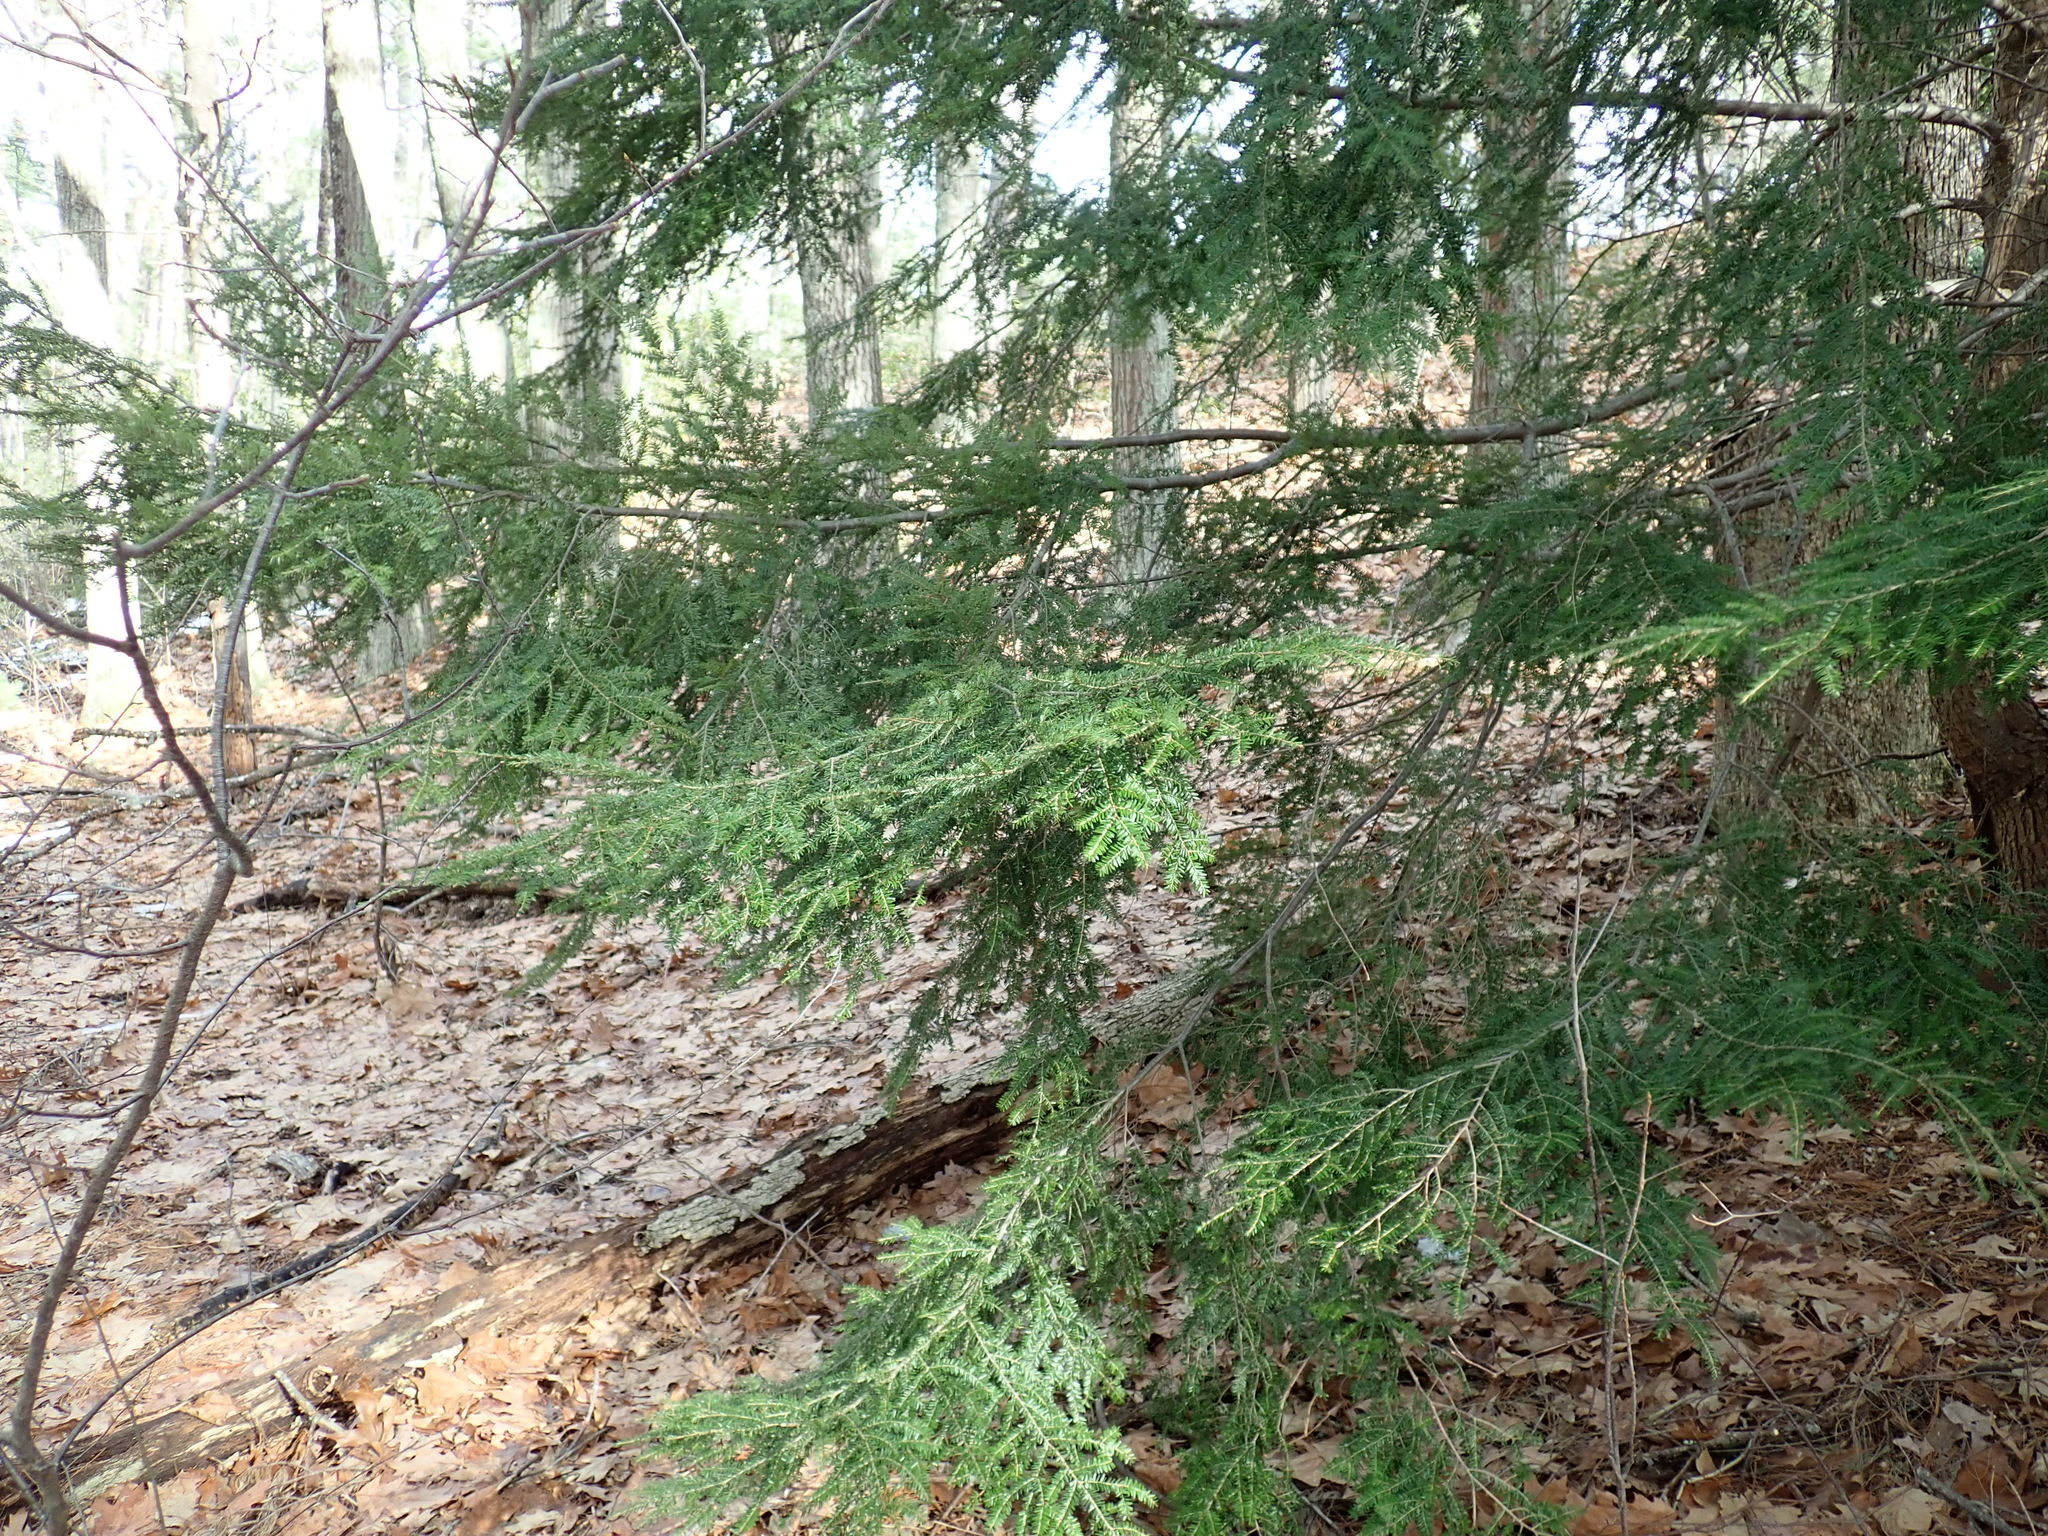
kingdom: Plantae
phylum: Tracheophyta
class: Pinopsida
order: Pinales
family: Pinaceae
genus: Tsuga
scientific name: Tsuga canadensis
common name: Eastern hemlock
